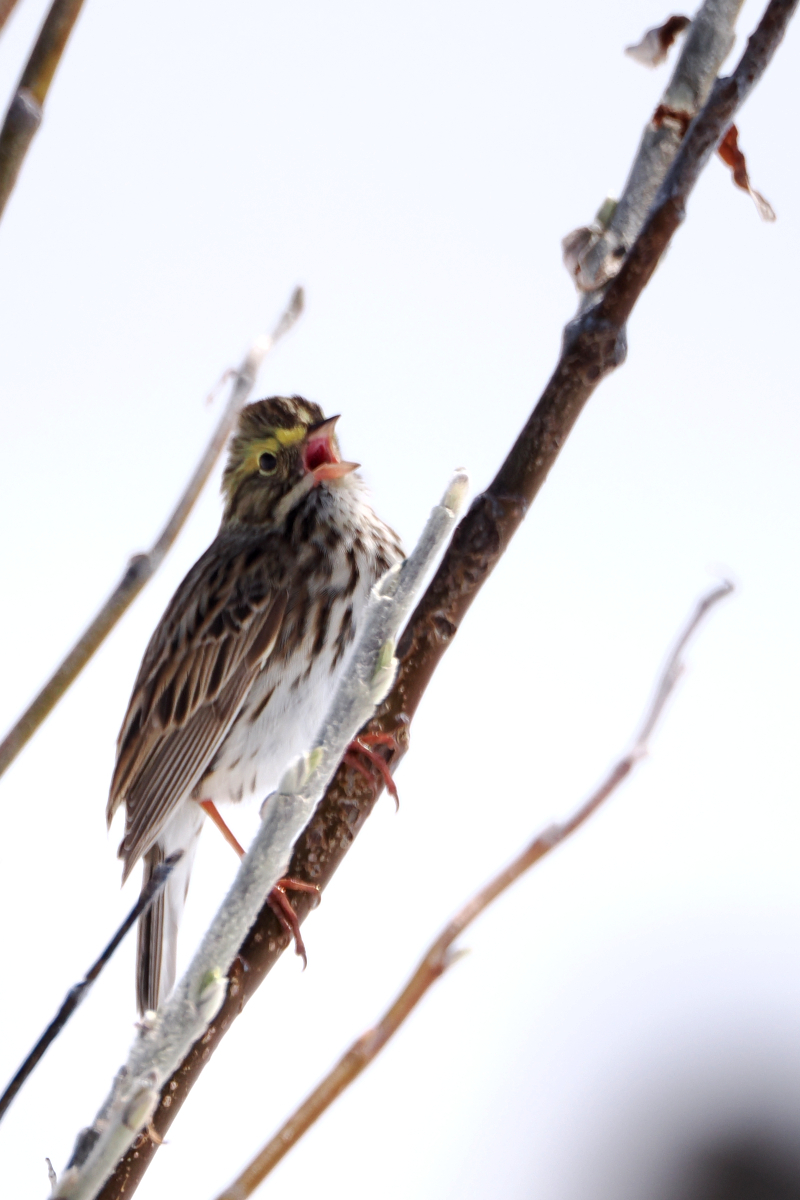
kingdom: Animalia
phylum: Chordata
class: Aves
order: Passeriformes
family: Passerellidae
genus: Passerculus
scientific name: Passerculus sandwichensis
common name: Savannah sparrow
